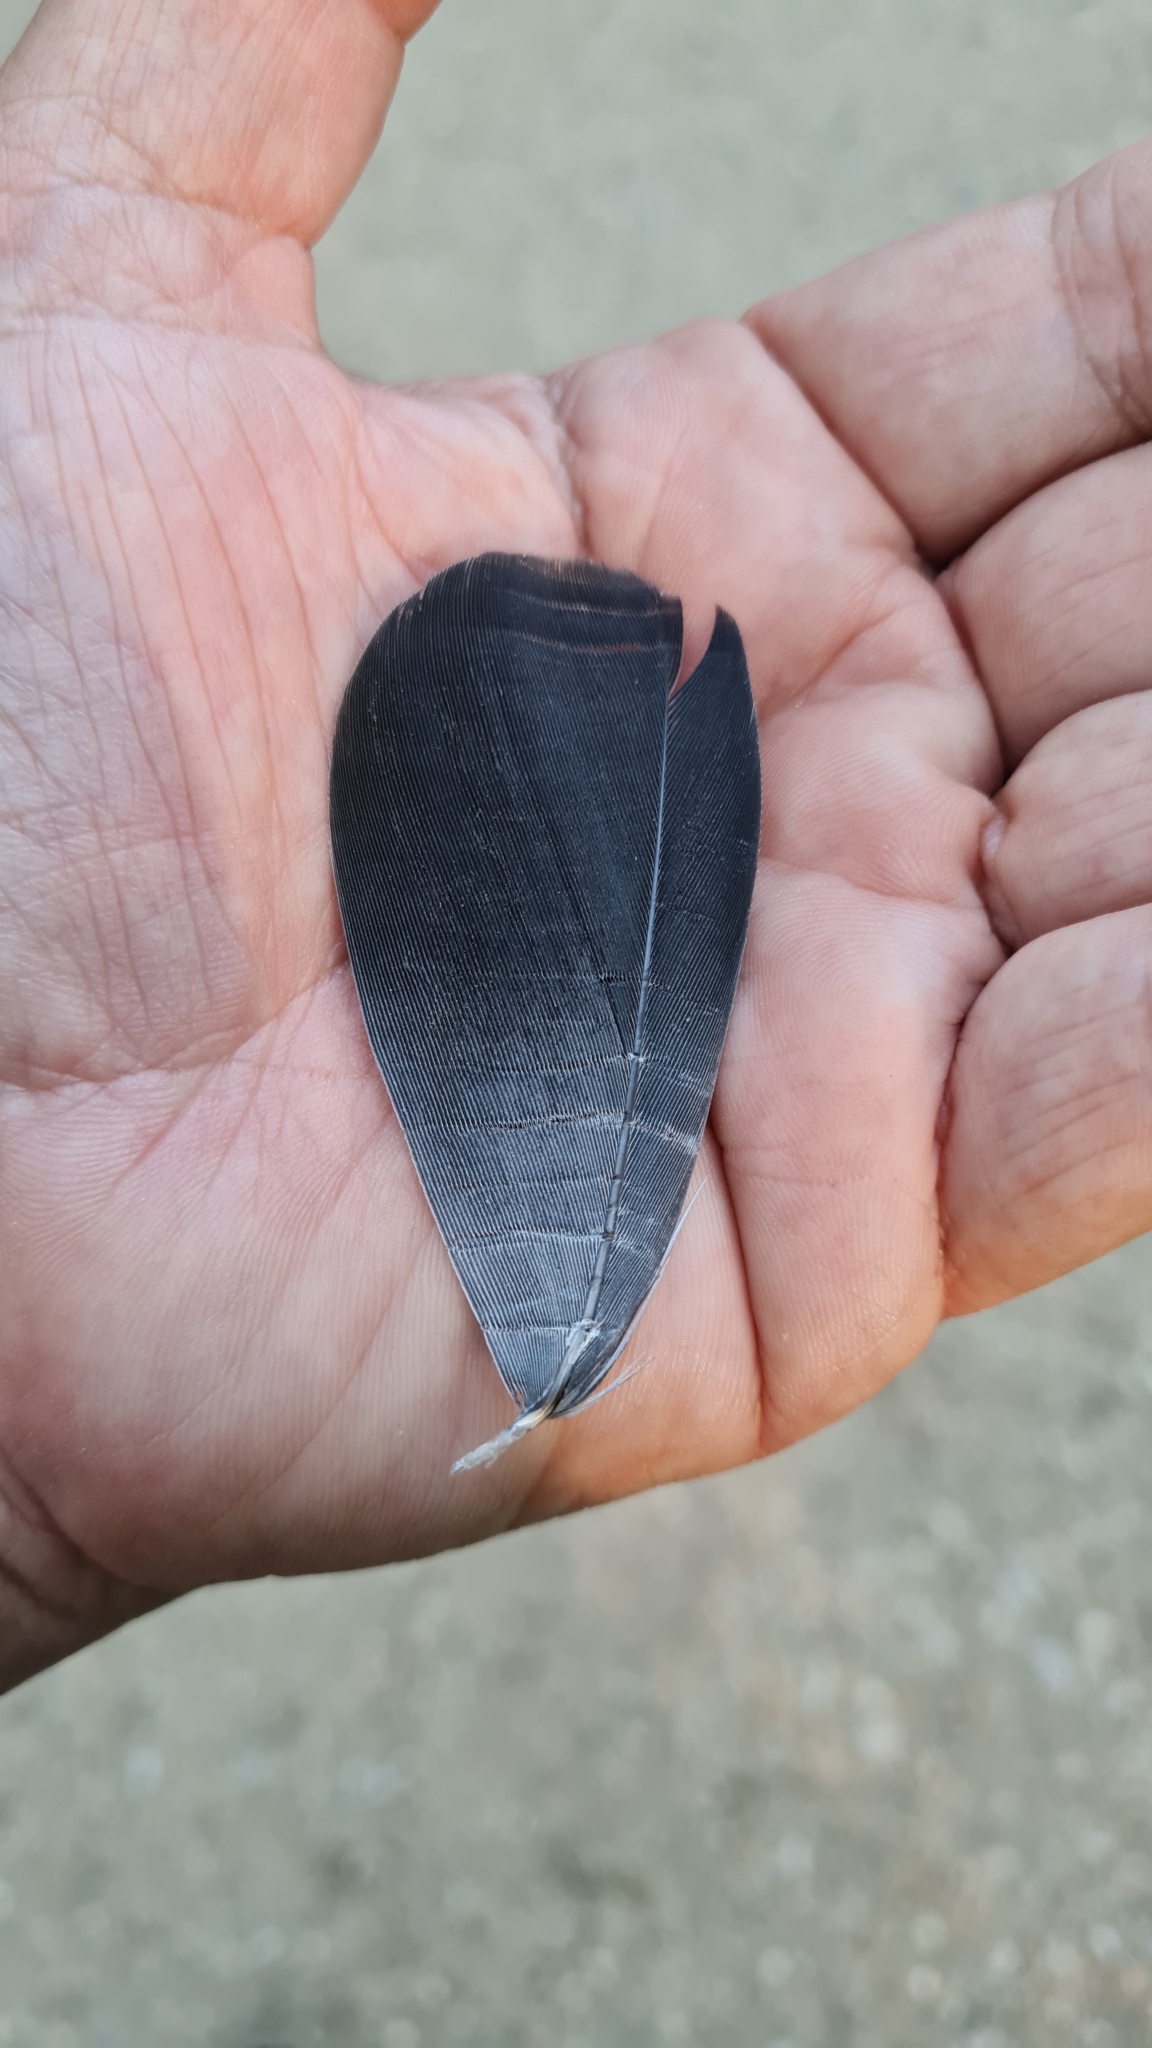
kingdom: Animalia
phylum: Chordata
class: Aves
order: Columbiformes
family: Columbidae
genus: Columba
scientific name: Columba palumbus
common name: Common wood pigeon
